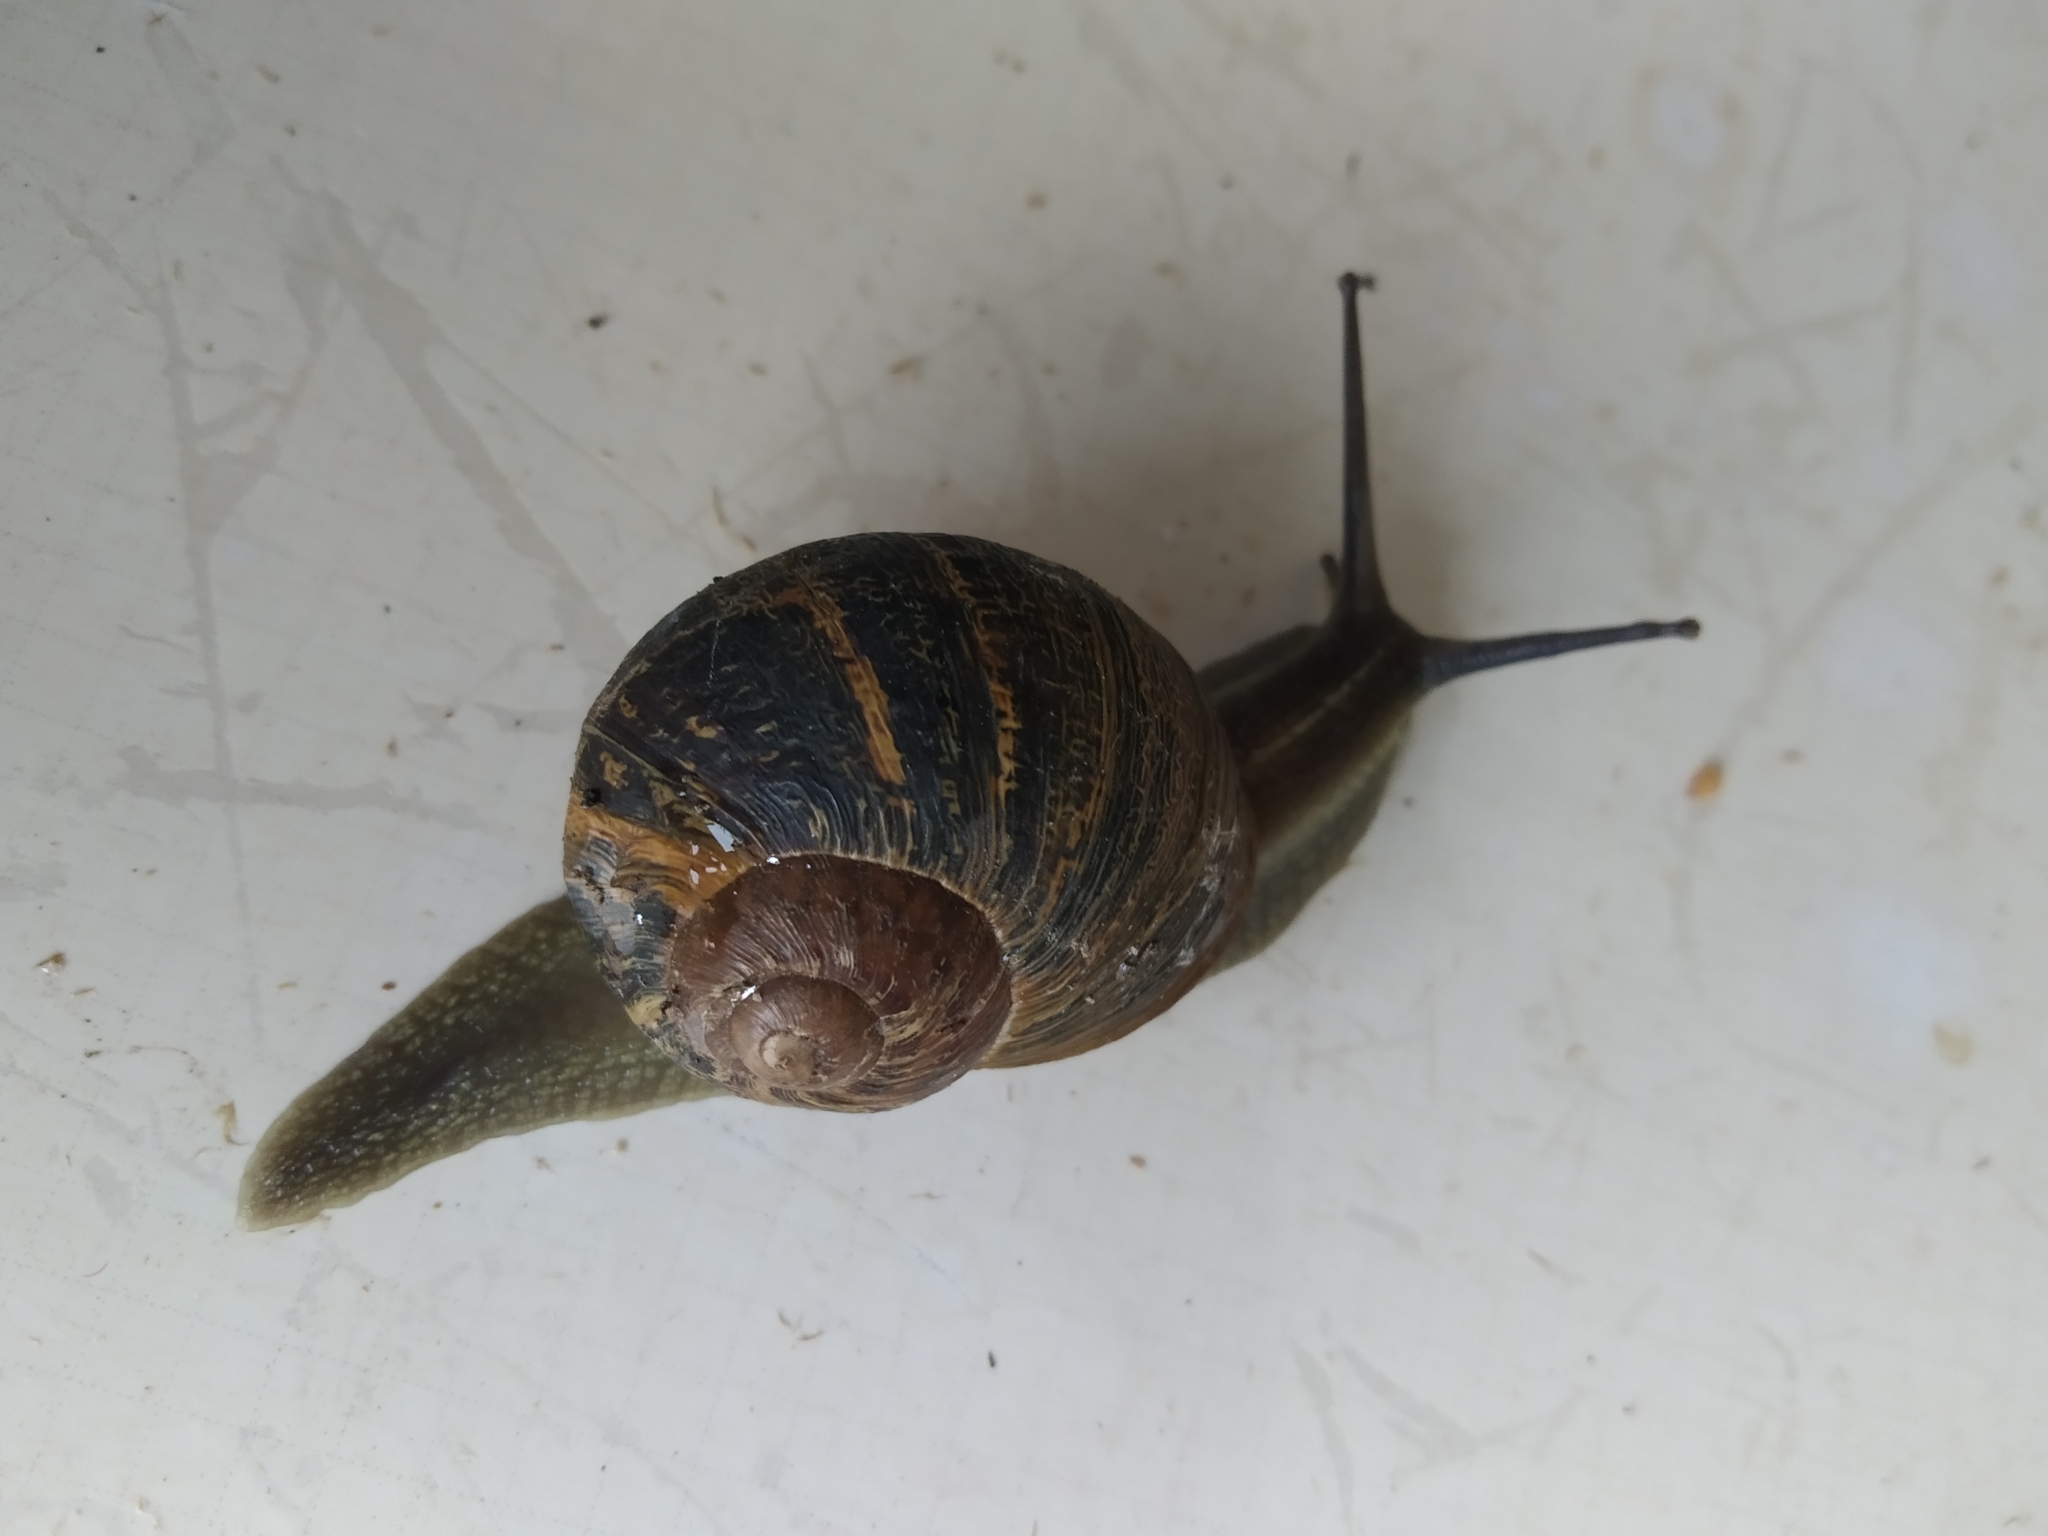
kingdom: Animalia
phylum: Mollusca
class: Gastropoda
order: Stylommatophora
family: Helicidae
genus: Cornu
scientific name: Cornu aspersum
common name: Brown garden snail
